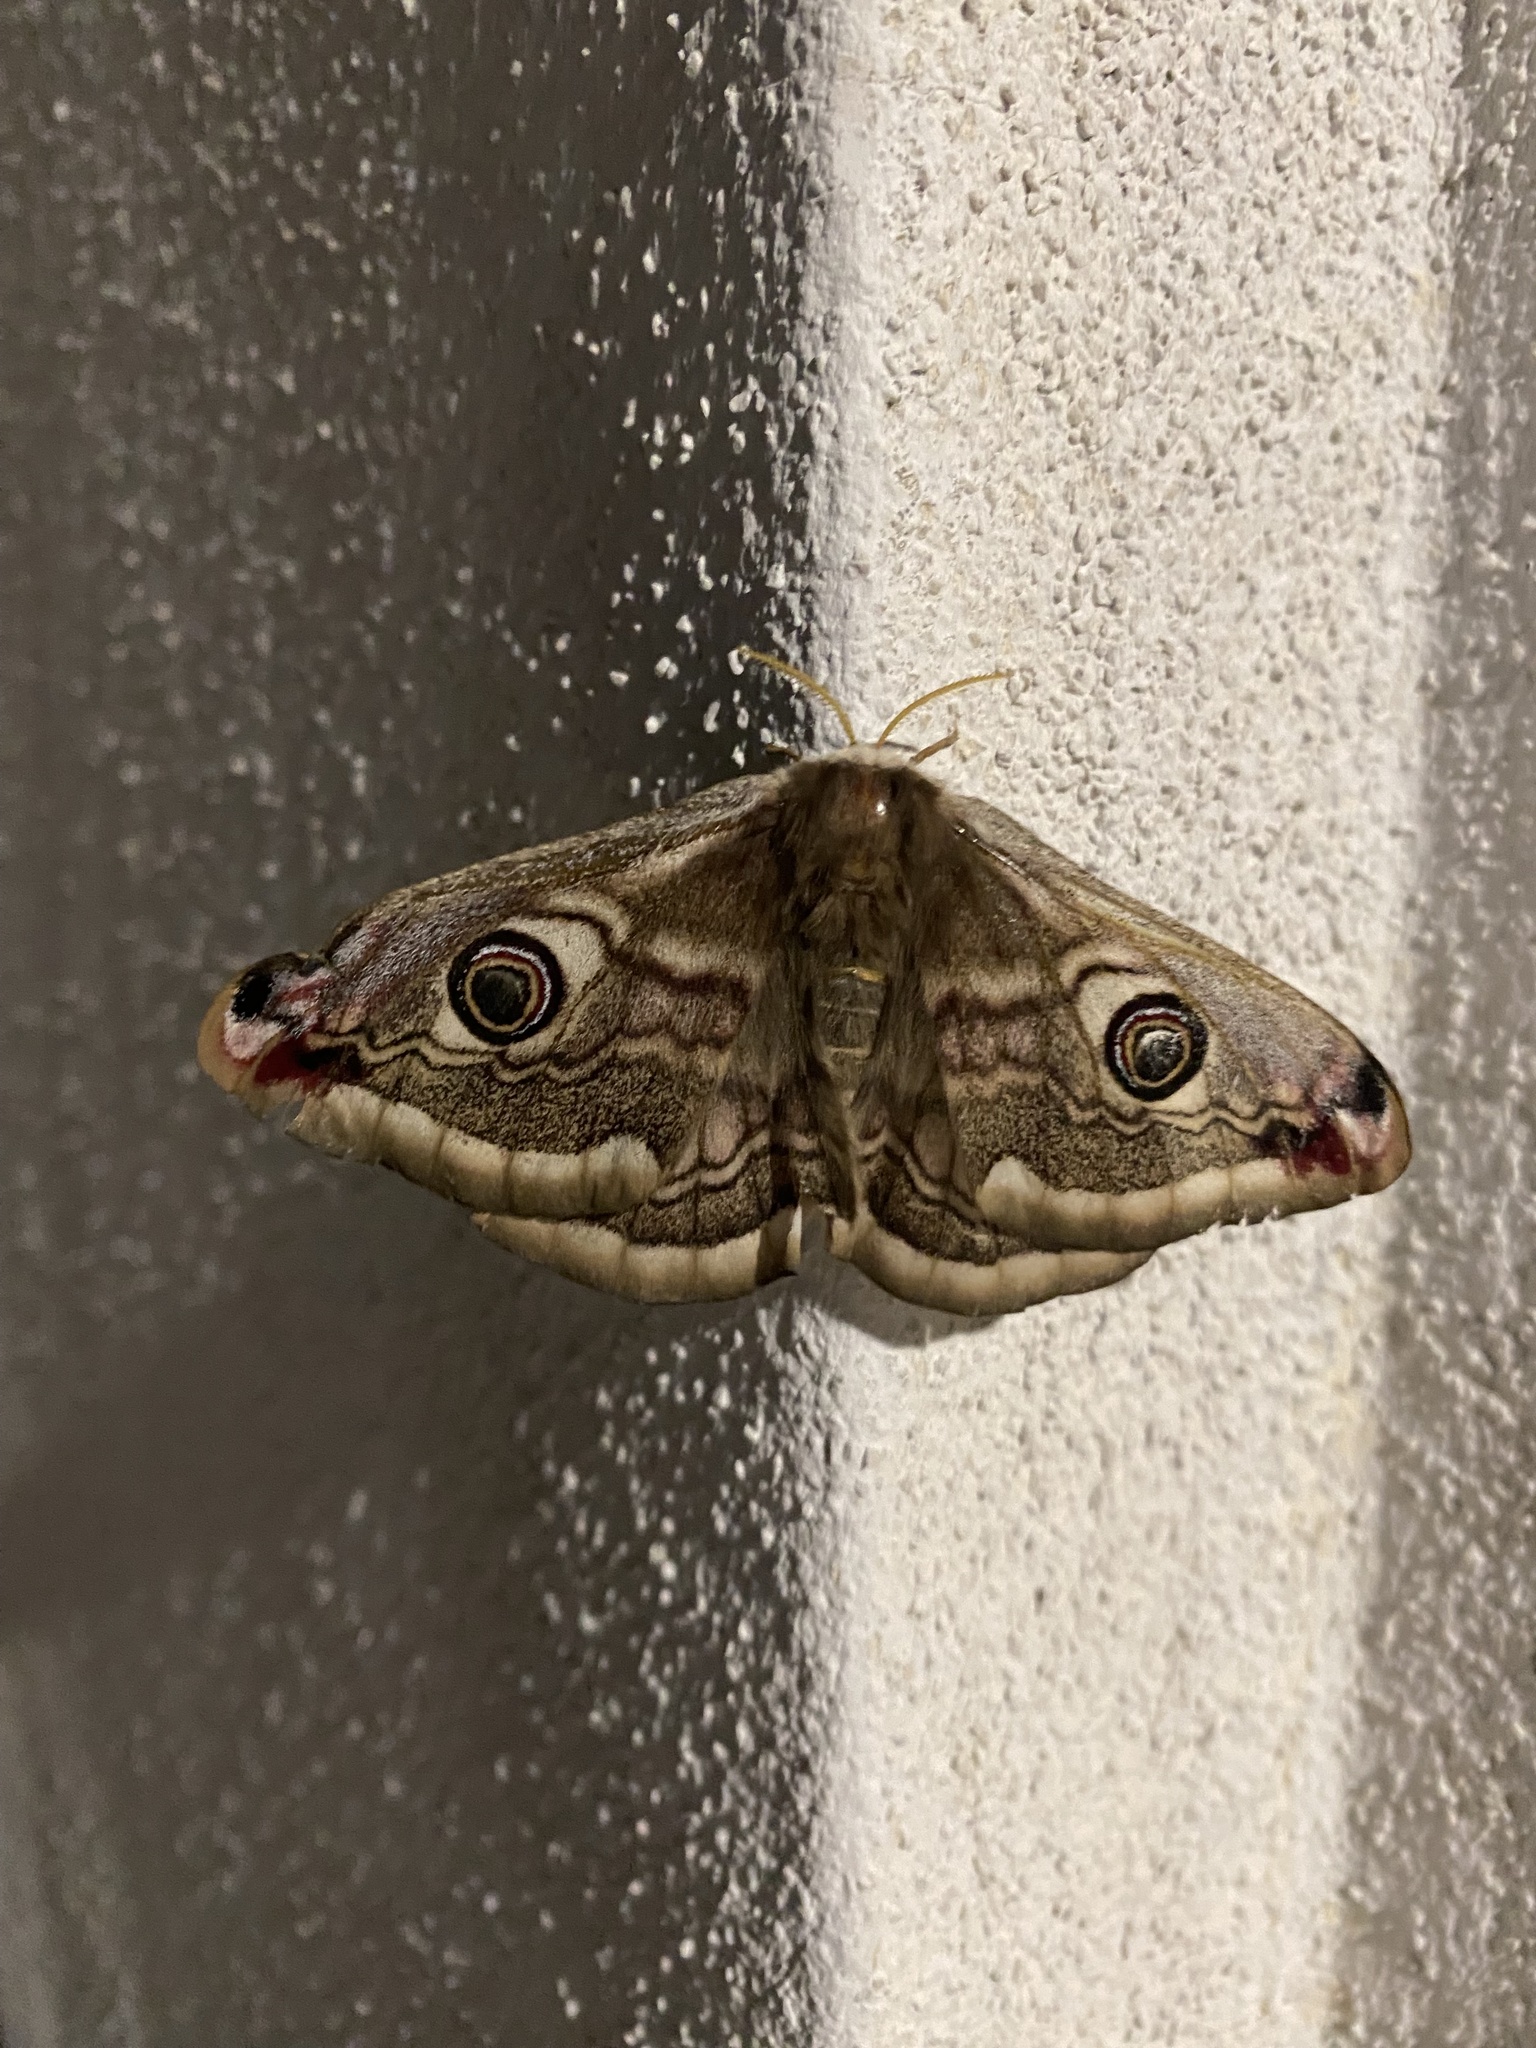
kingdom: Animalia
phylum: Arthropoda
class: Insecta
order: Lepidoptera
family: Saturniidae
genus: Saturnia
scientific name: Saturnia pavoniella
